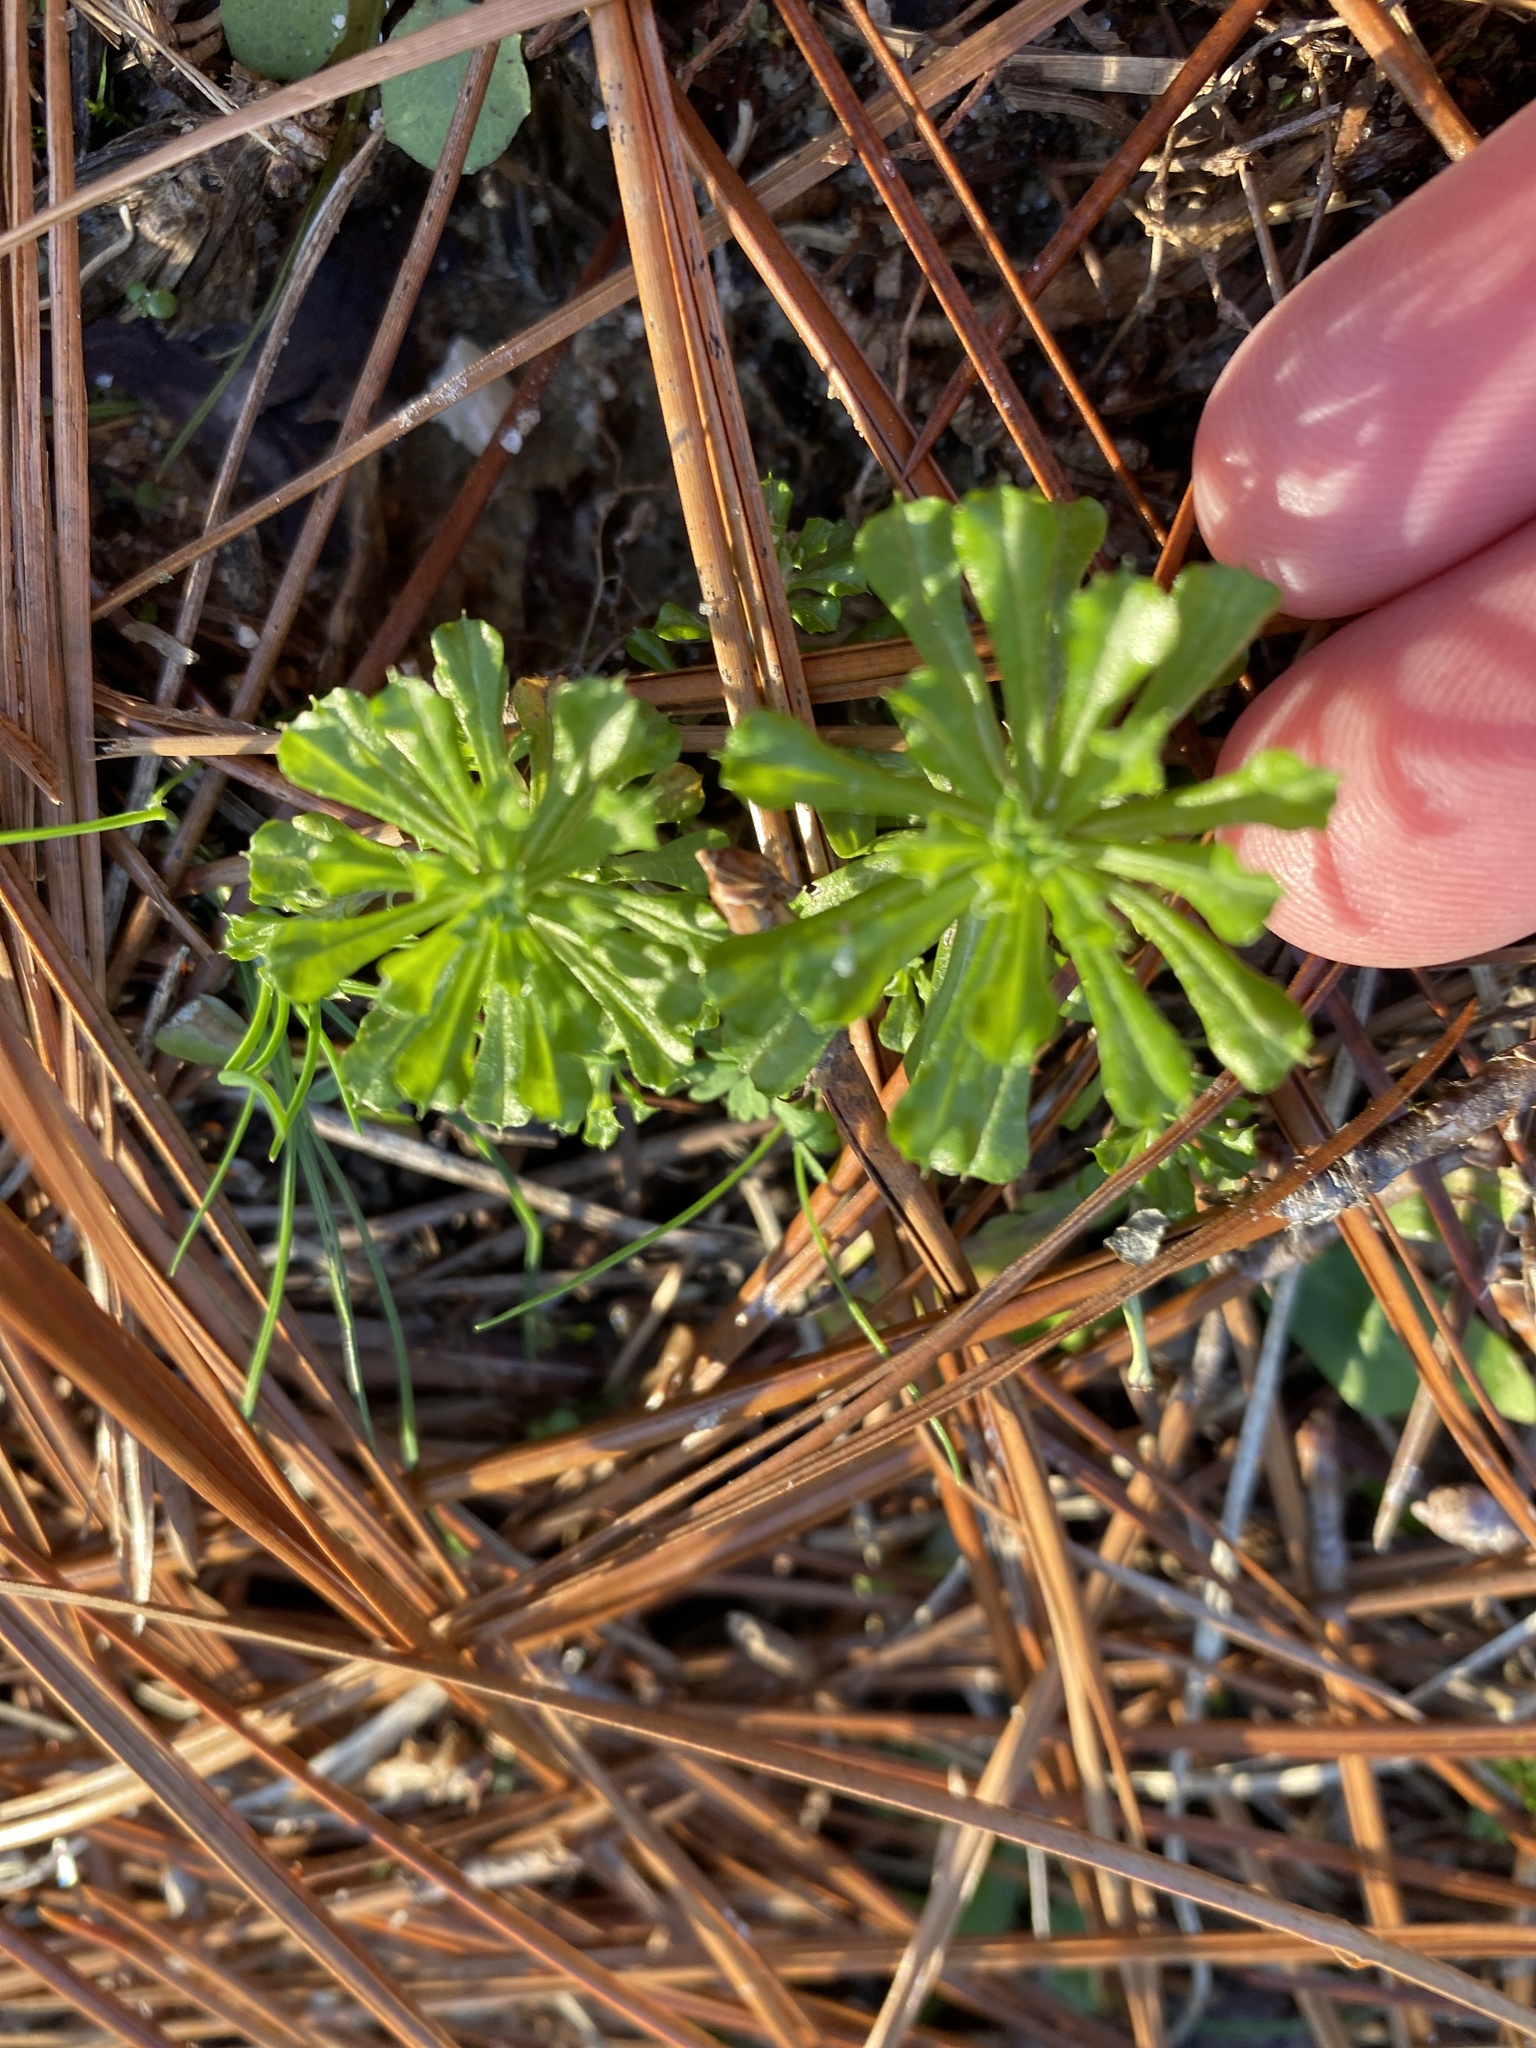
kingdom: Plantae
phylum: Tracheophyta
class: Magnoliopsida
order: Asterales
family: Asteraceae
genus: Facelis
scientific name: Facelis retusa
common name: Annual trampweed
